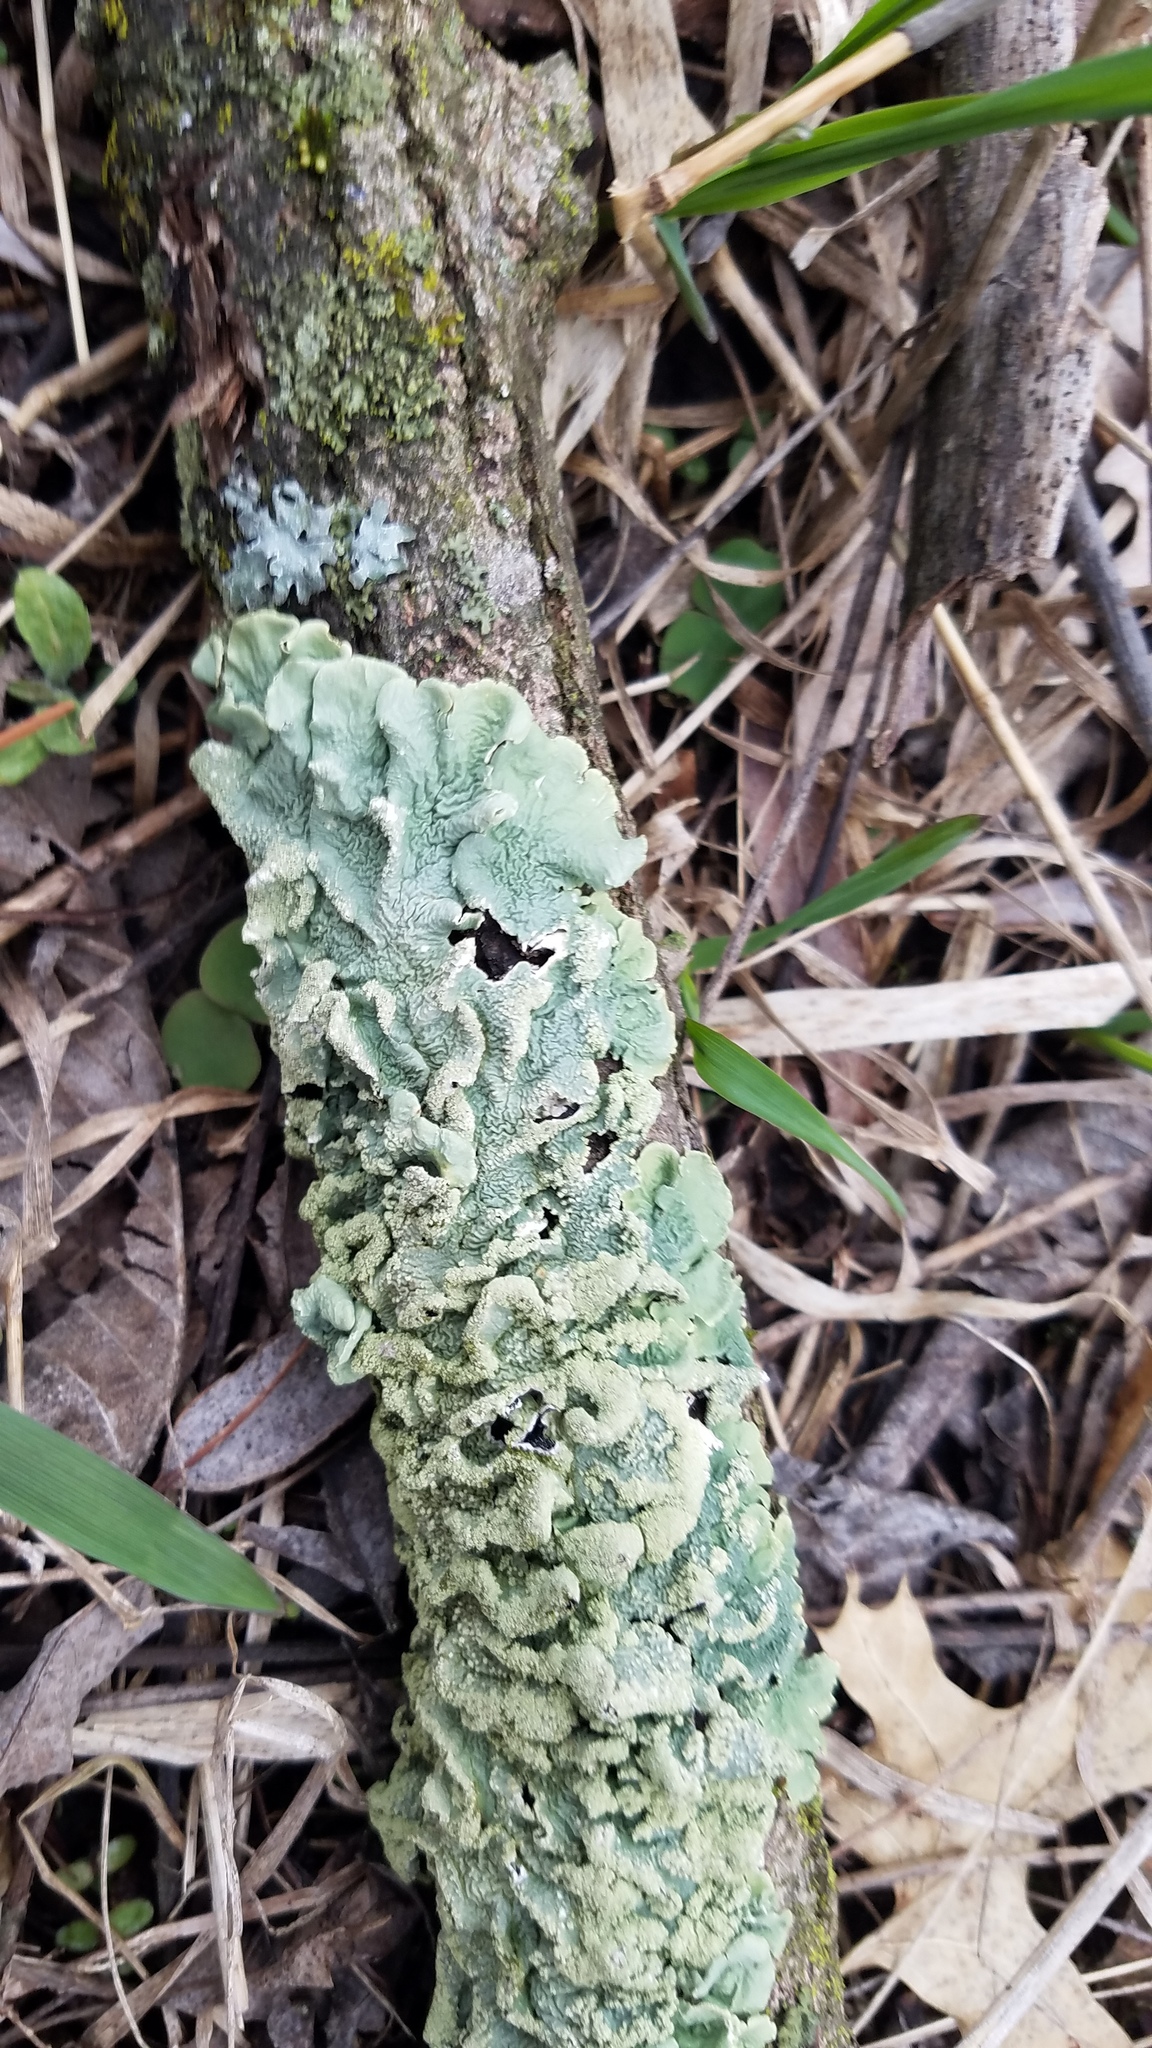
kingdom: Fungi
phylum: Ascomycota
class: Lecanoromycetes
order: Lecanorales
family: Parmeliaceae
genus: Flavoparmelia
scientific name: Flavoparmelia caperata
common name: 40-mile per hour lichen
